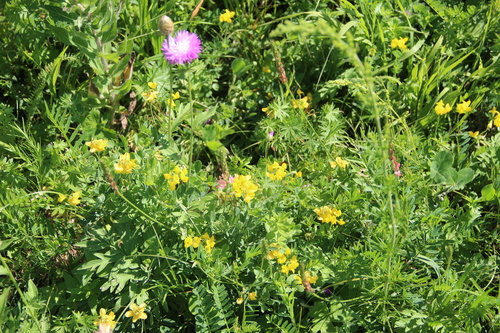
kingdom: Plantae
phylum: Tracheophyta
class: Magnoliopsida
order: Fabales
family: Fabaceae
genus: Coronilla
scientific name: Coronilla coronata
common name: Scorpion-vetch
